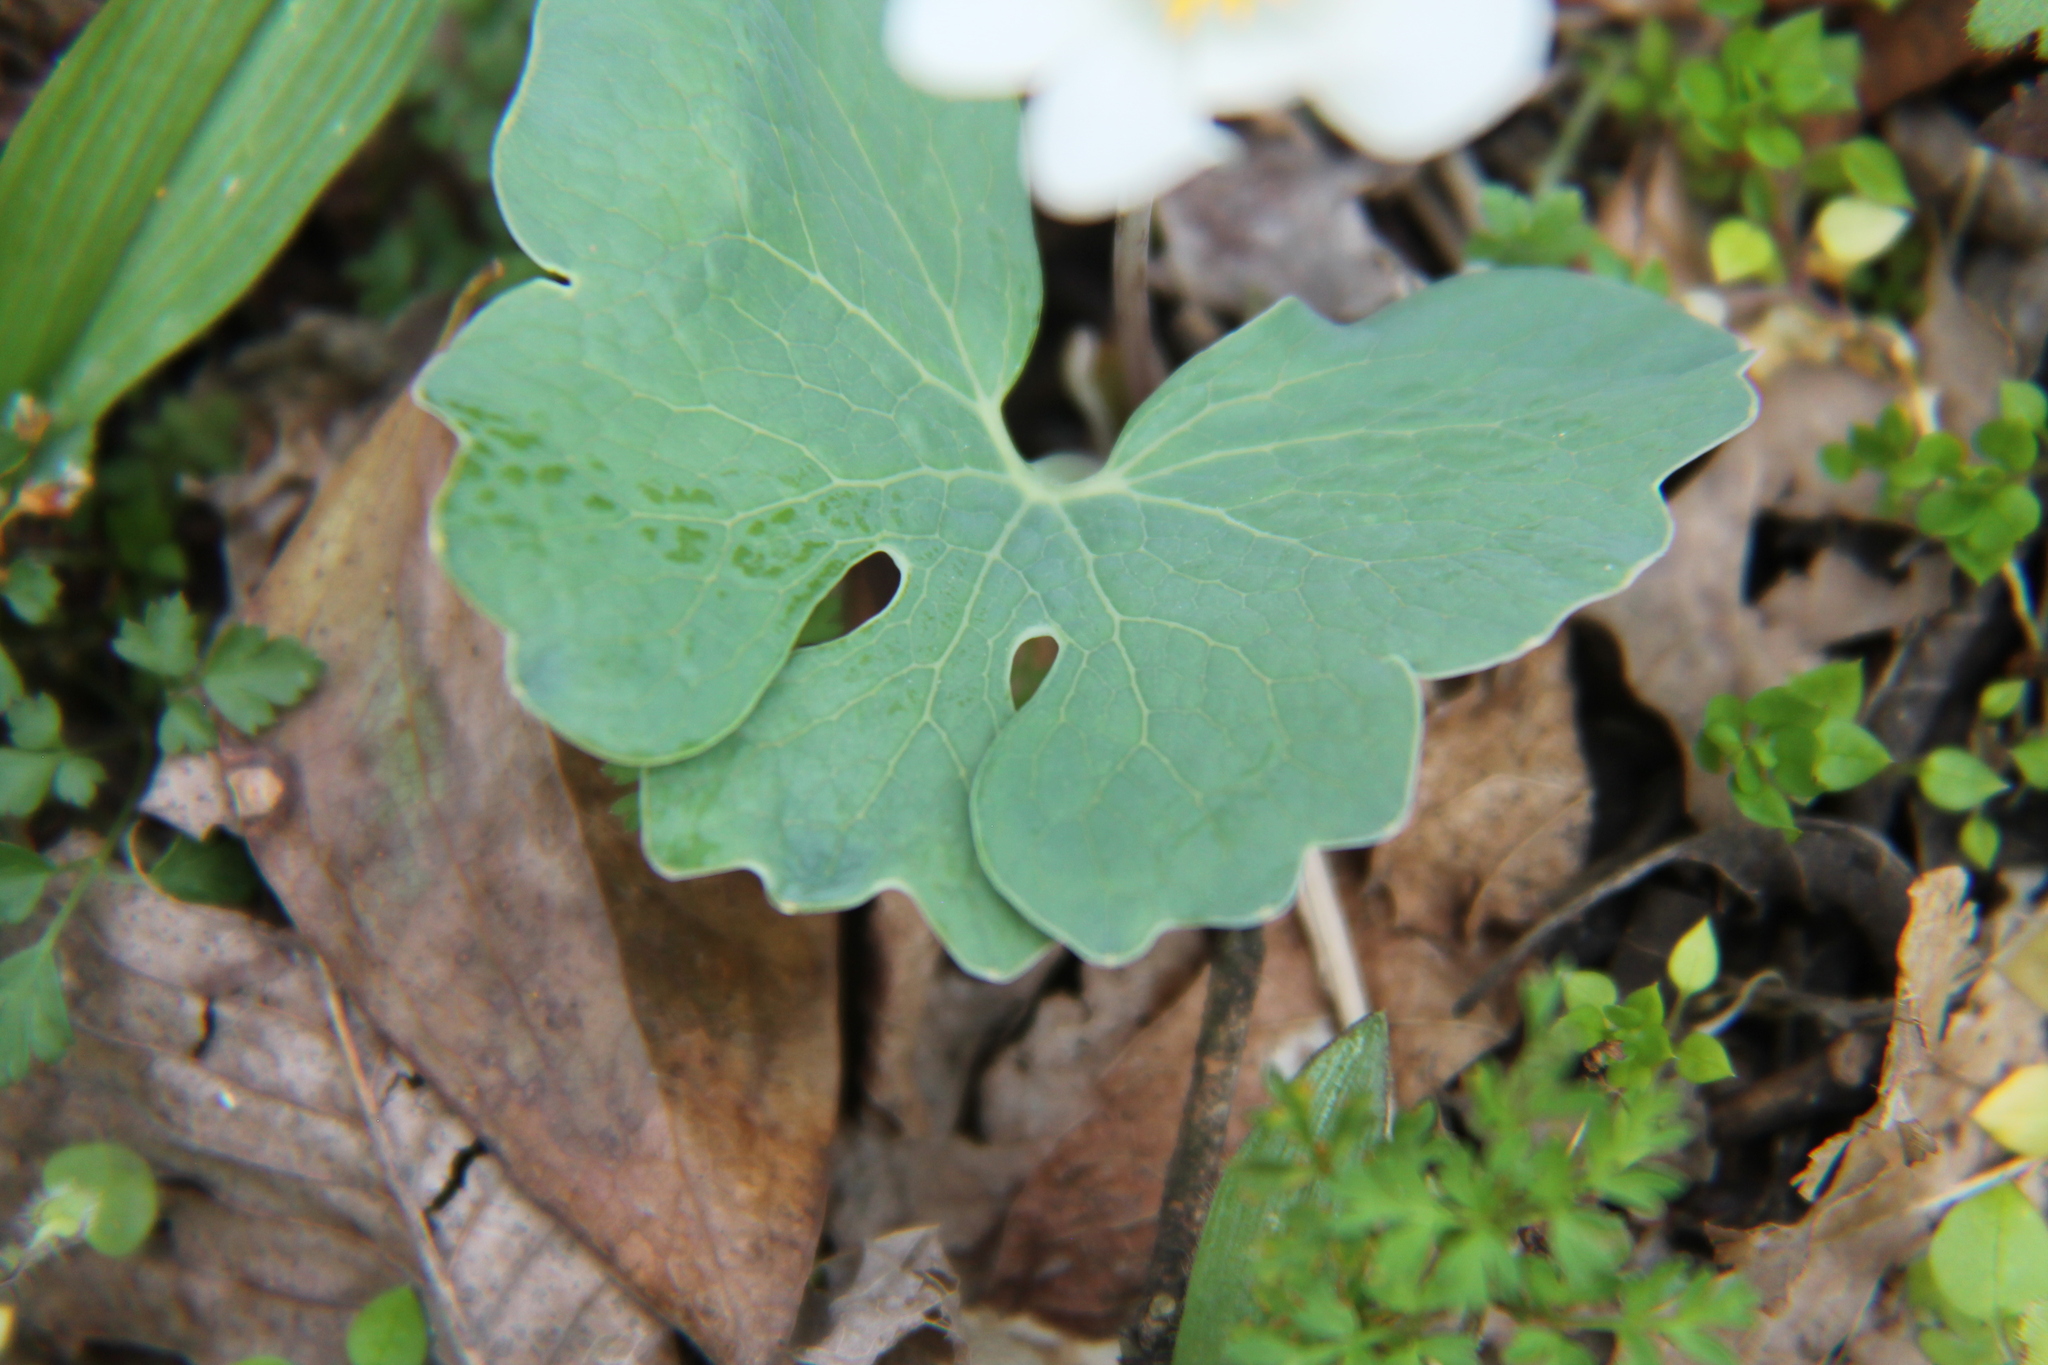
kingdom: Plantae
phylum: Tracheophyta
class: Magnoliopsida
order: Ranunculales
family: Papaveraceae
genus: Sanguinaria
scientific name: Sanguinaria canadensis
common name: Bloodroot
